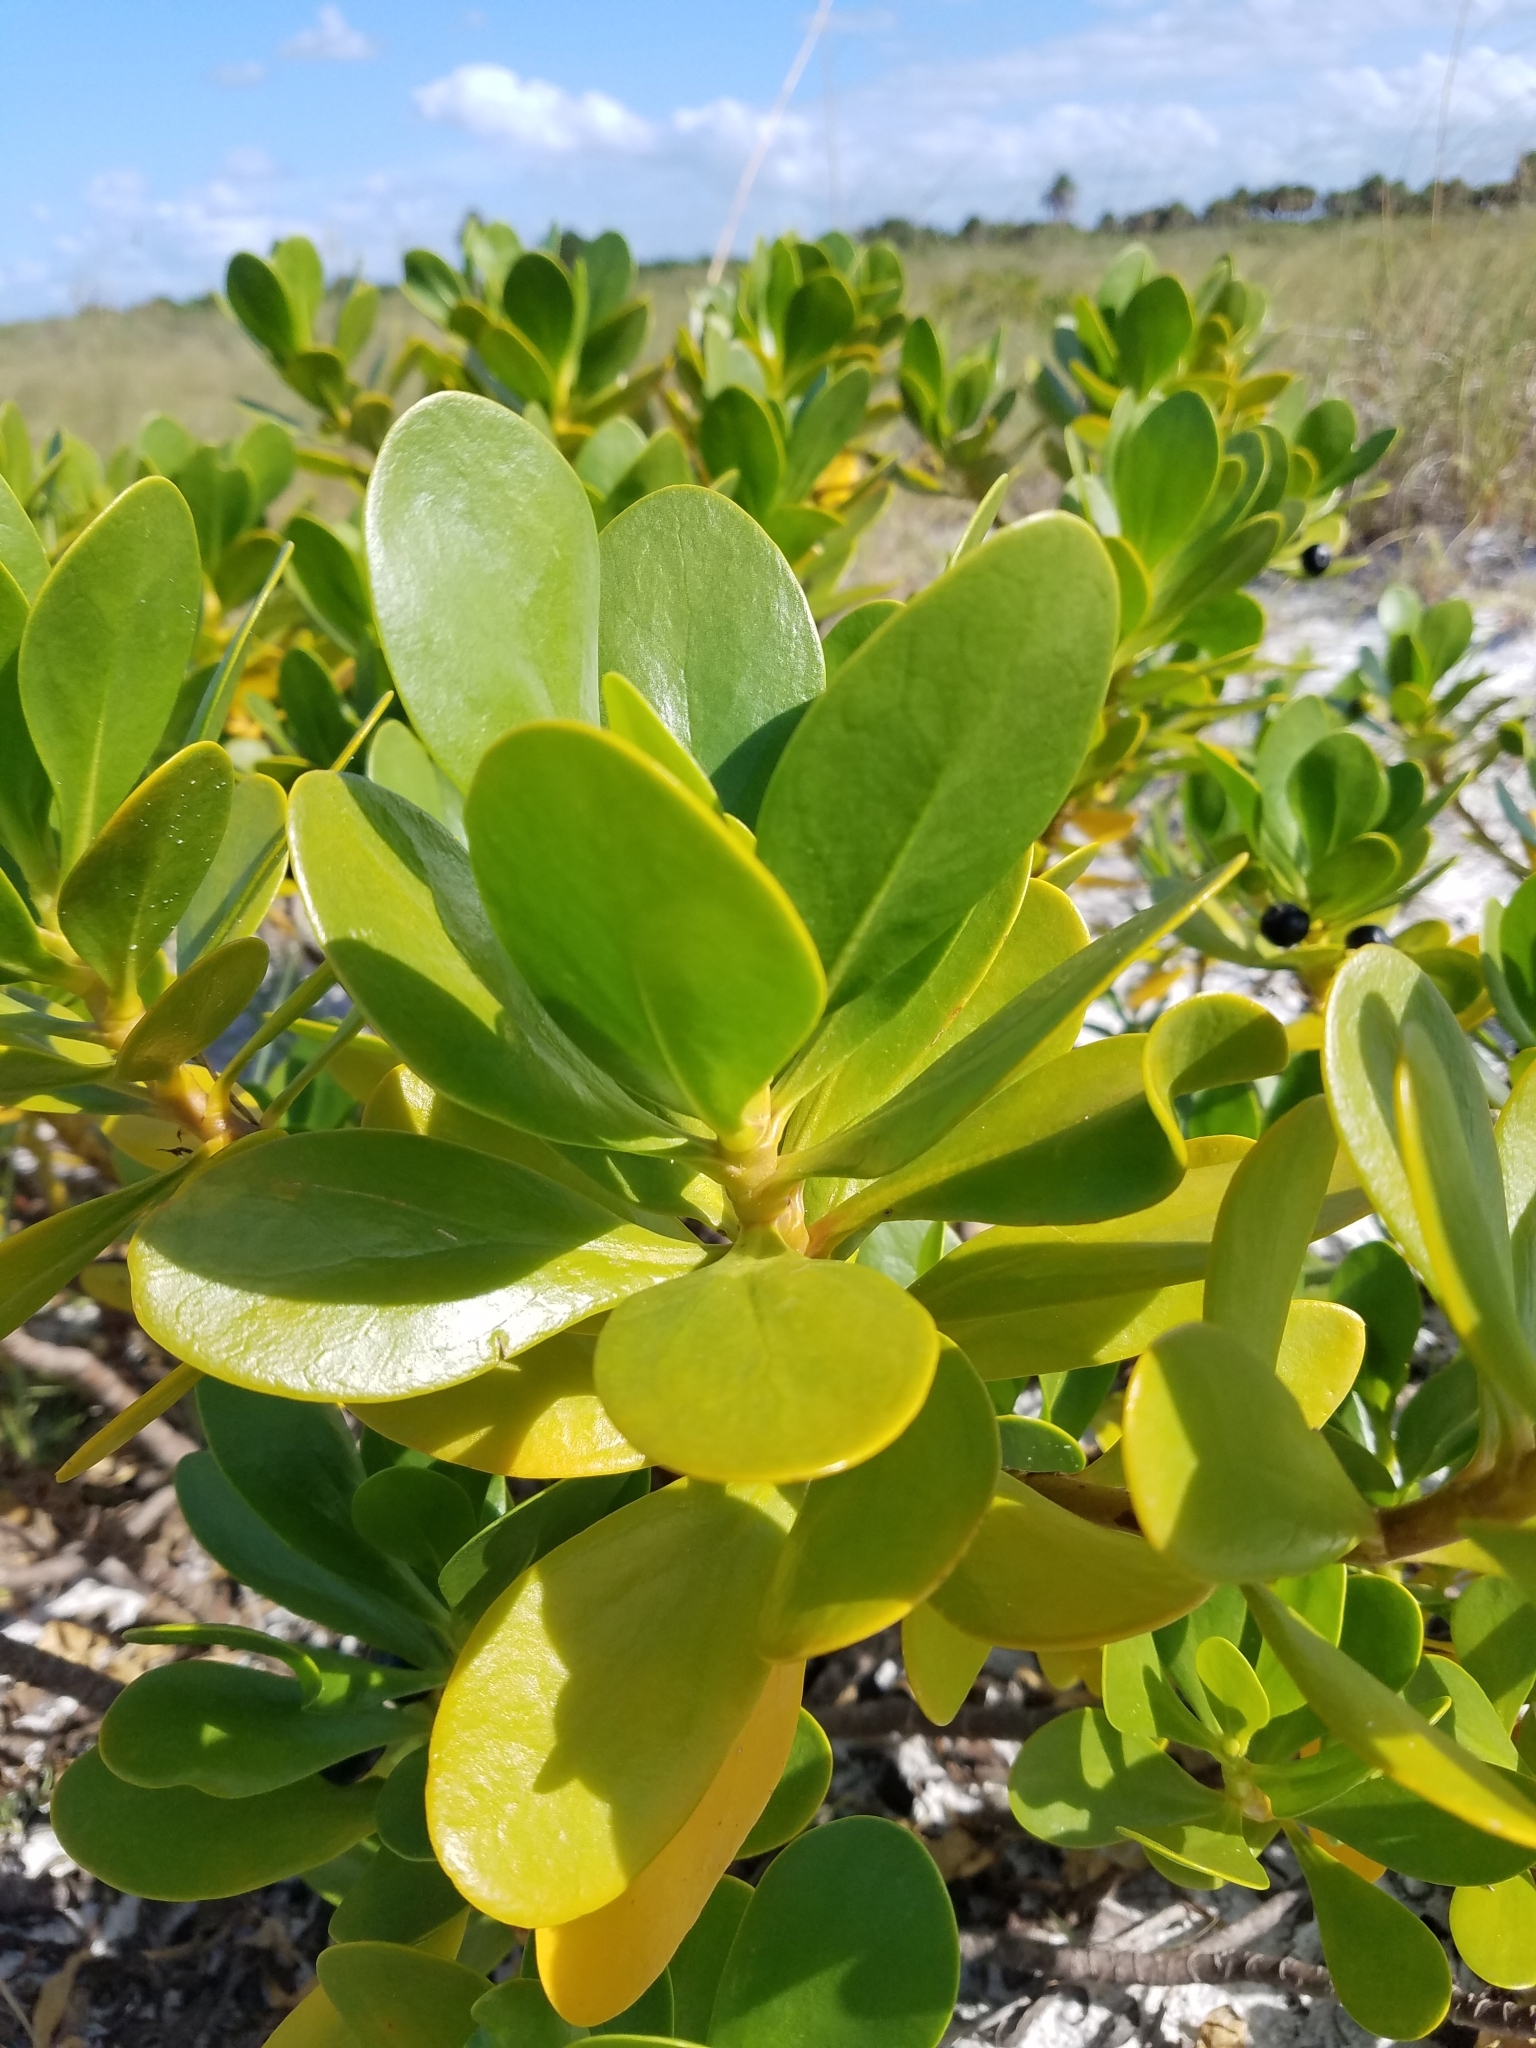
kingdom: Plantae
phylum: Tracheophyta
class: Magnoliopsida
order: Asterales
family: Goodeniaceae
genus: Scaevola
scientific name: Scaevola plumieri
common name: Gull feed
